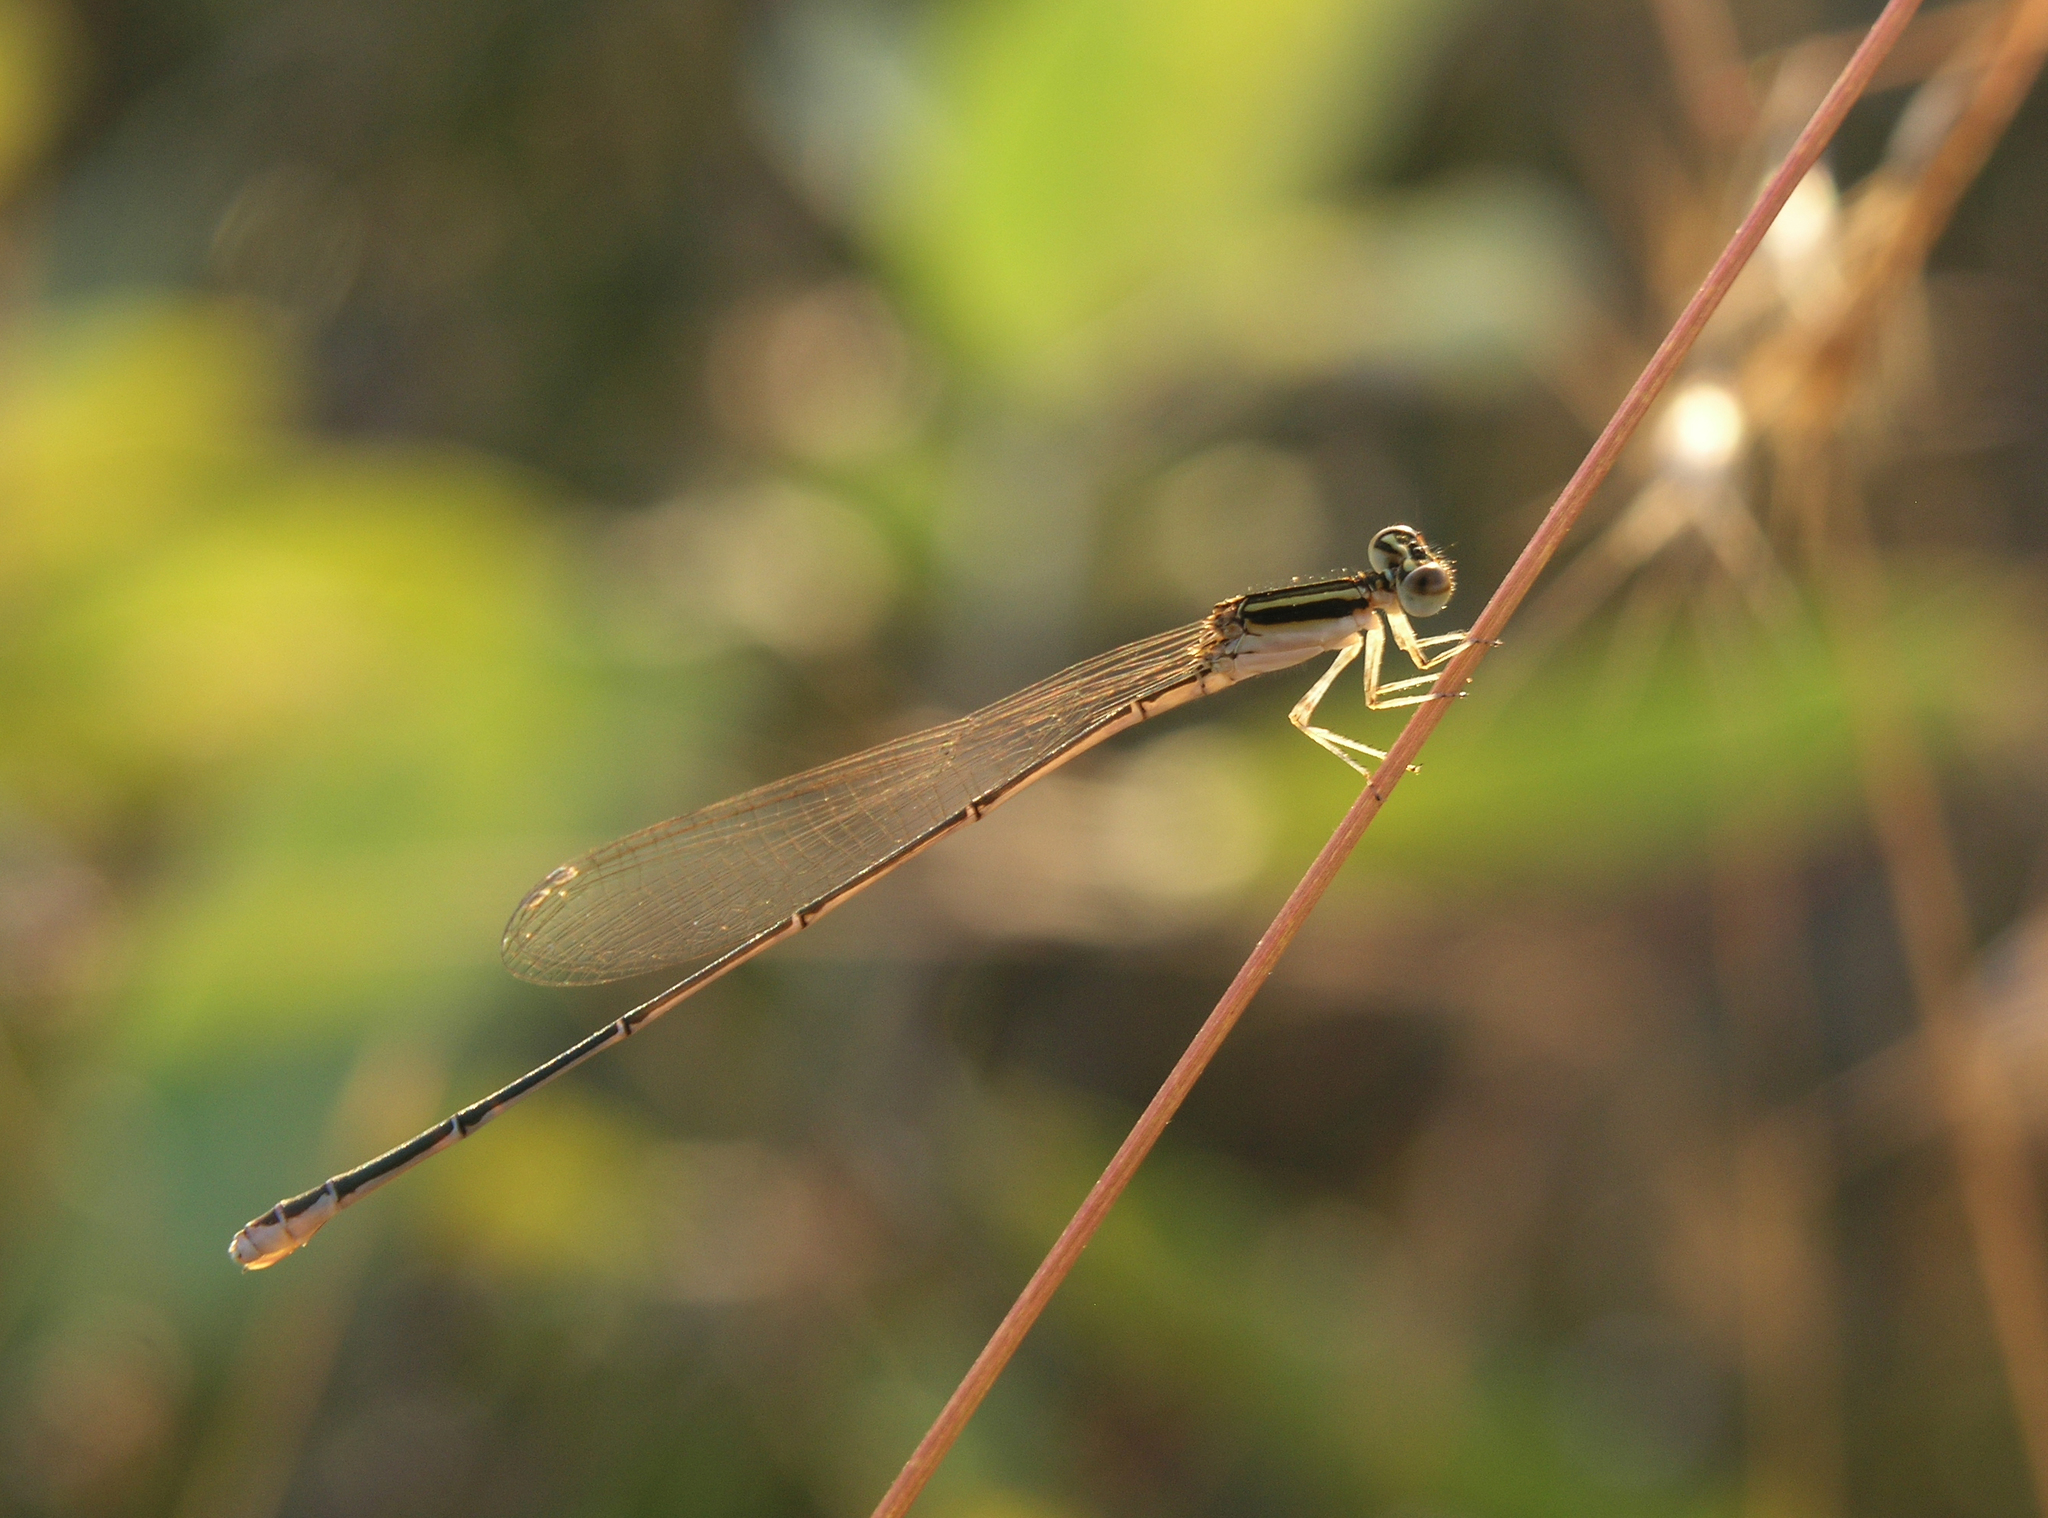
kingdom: Animalia
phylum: Arthropoda
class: Insecta
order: Odonata
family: Coenagrionidae
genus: Aciagrion
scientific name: Aciagrion borneense
